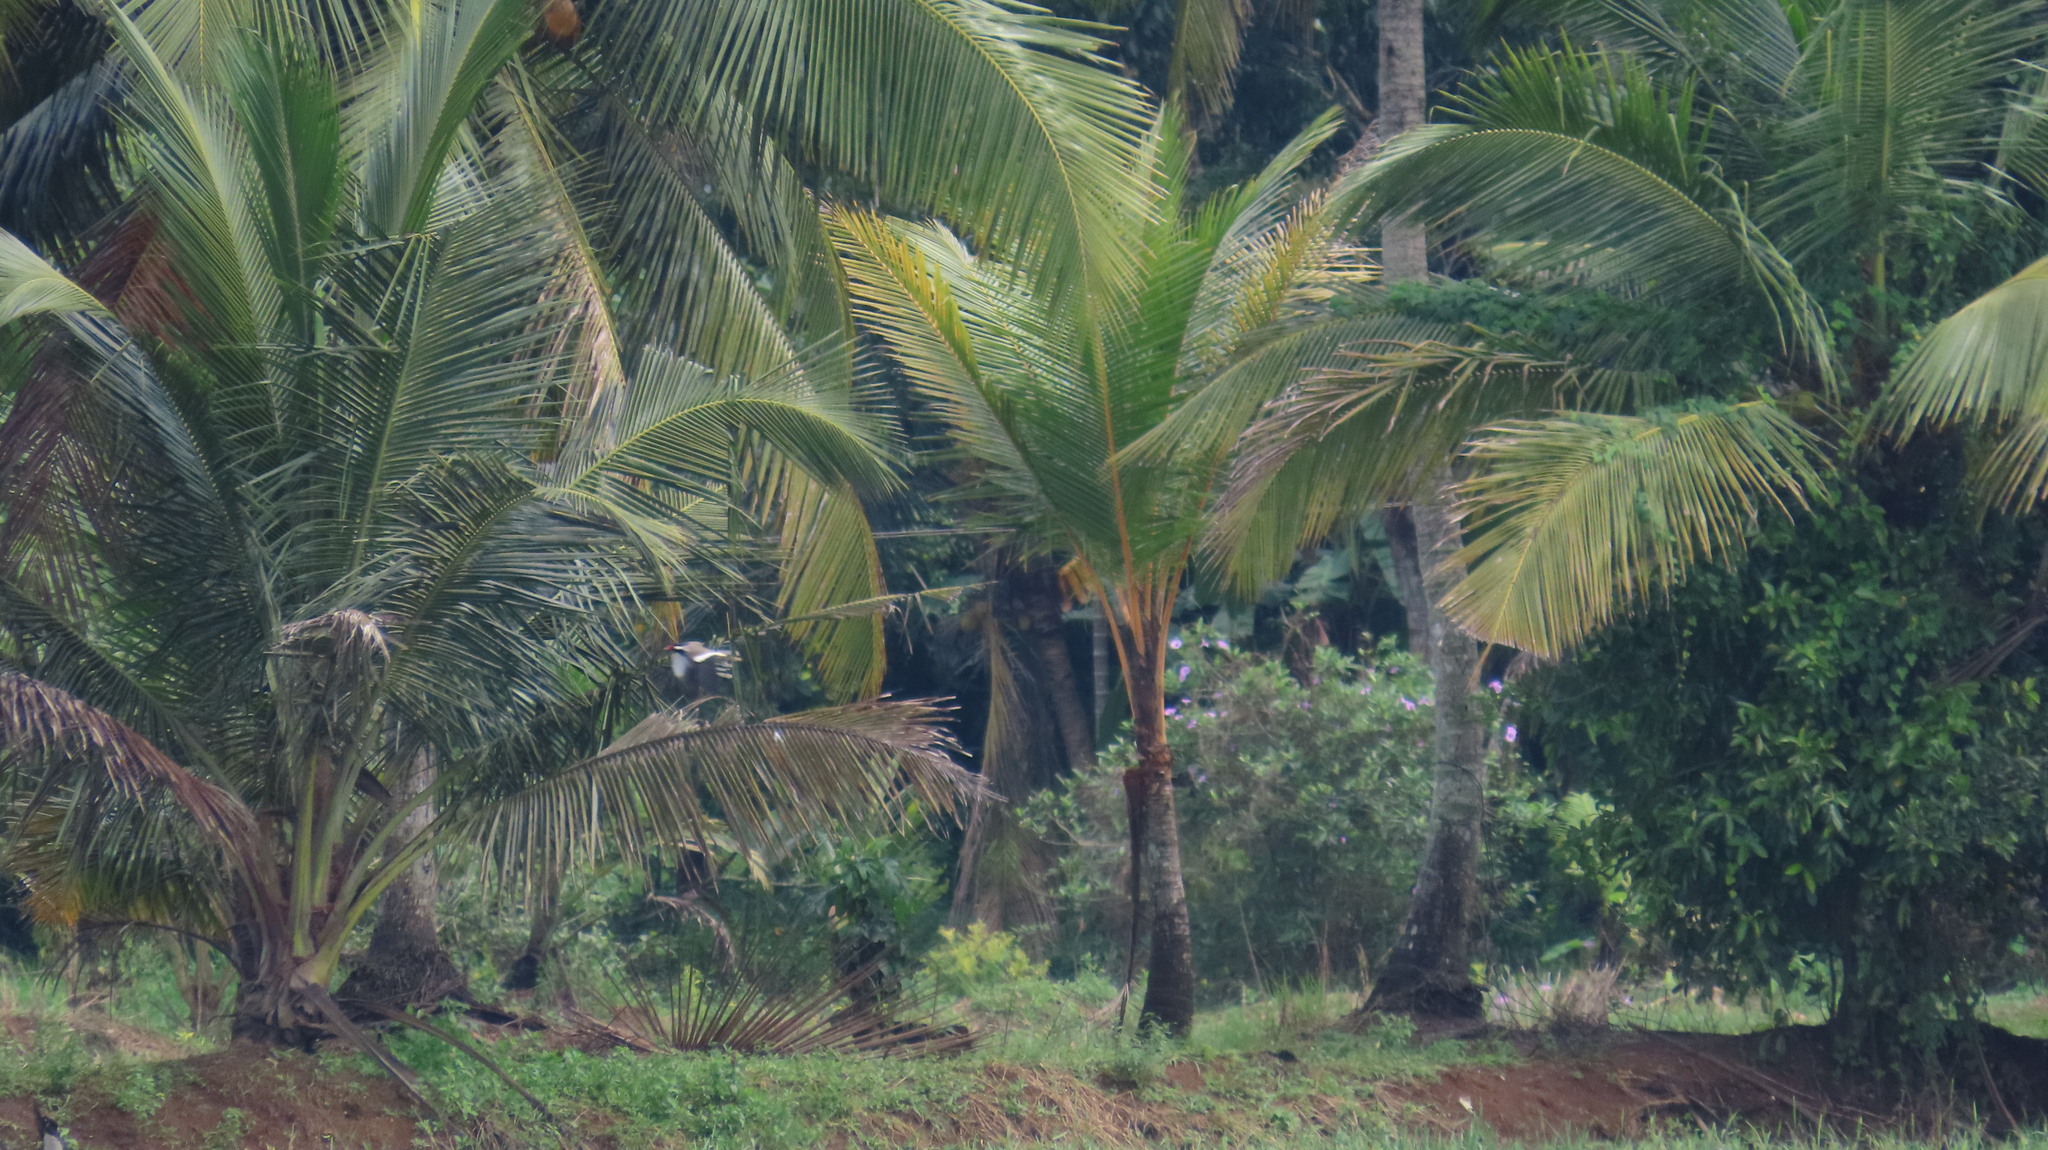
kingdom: Animalia
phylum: Chordata
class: Aves
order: Charadriiformes
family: Charadriidae
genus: Vanellus
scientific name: Vanellus indicus
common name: Red-wattled lapwing
